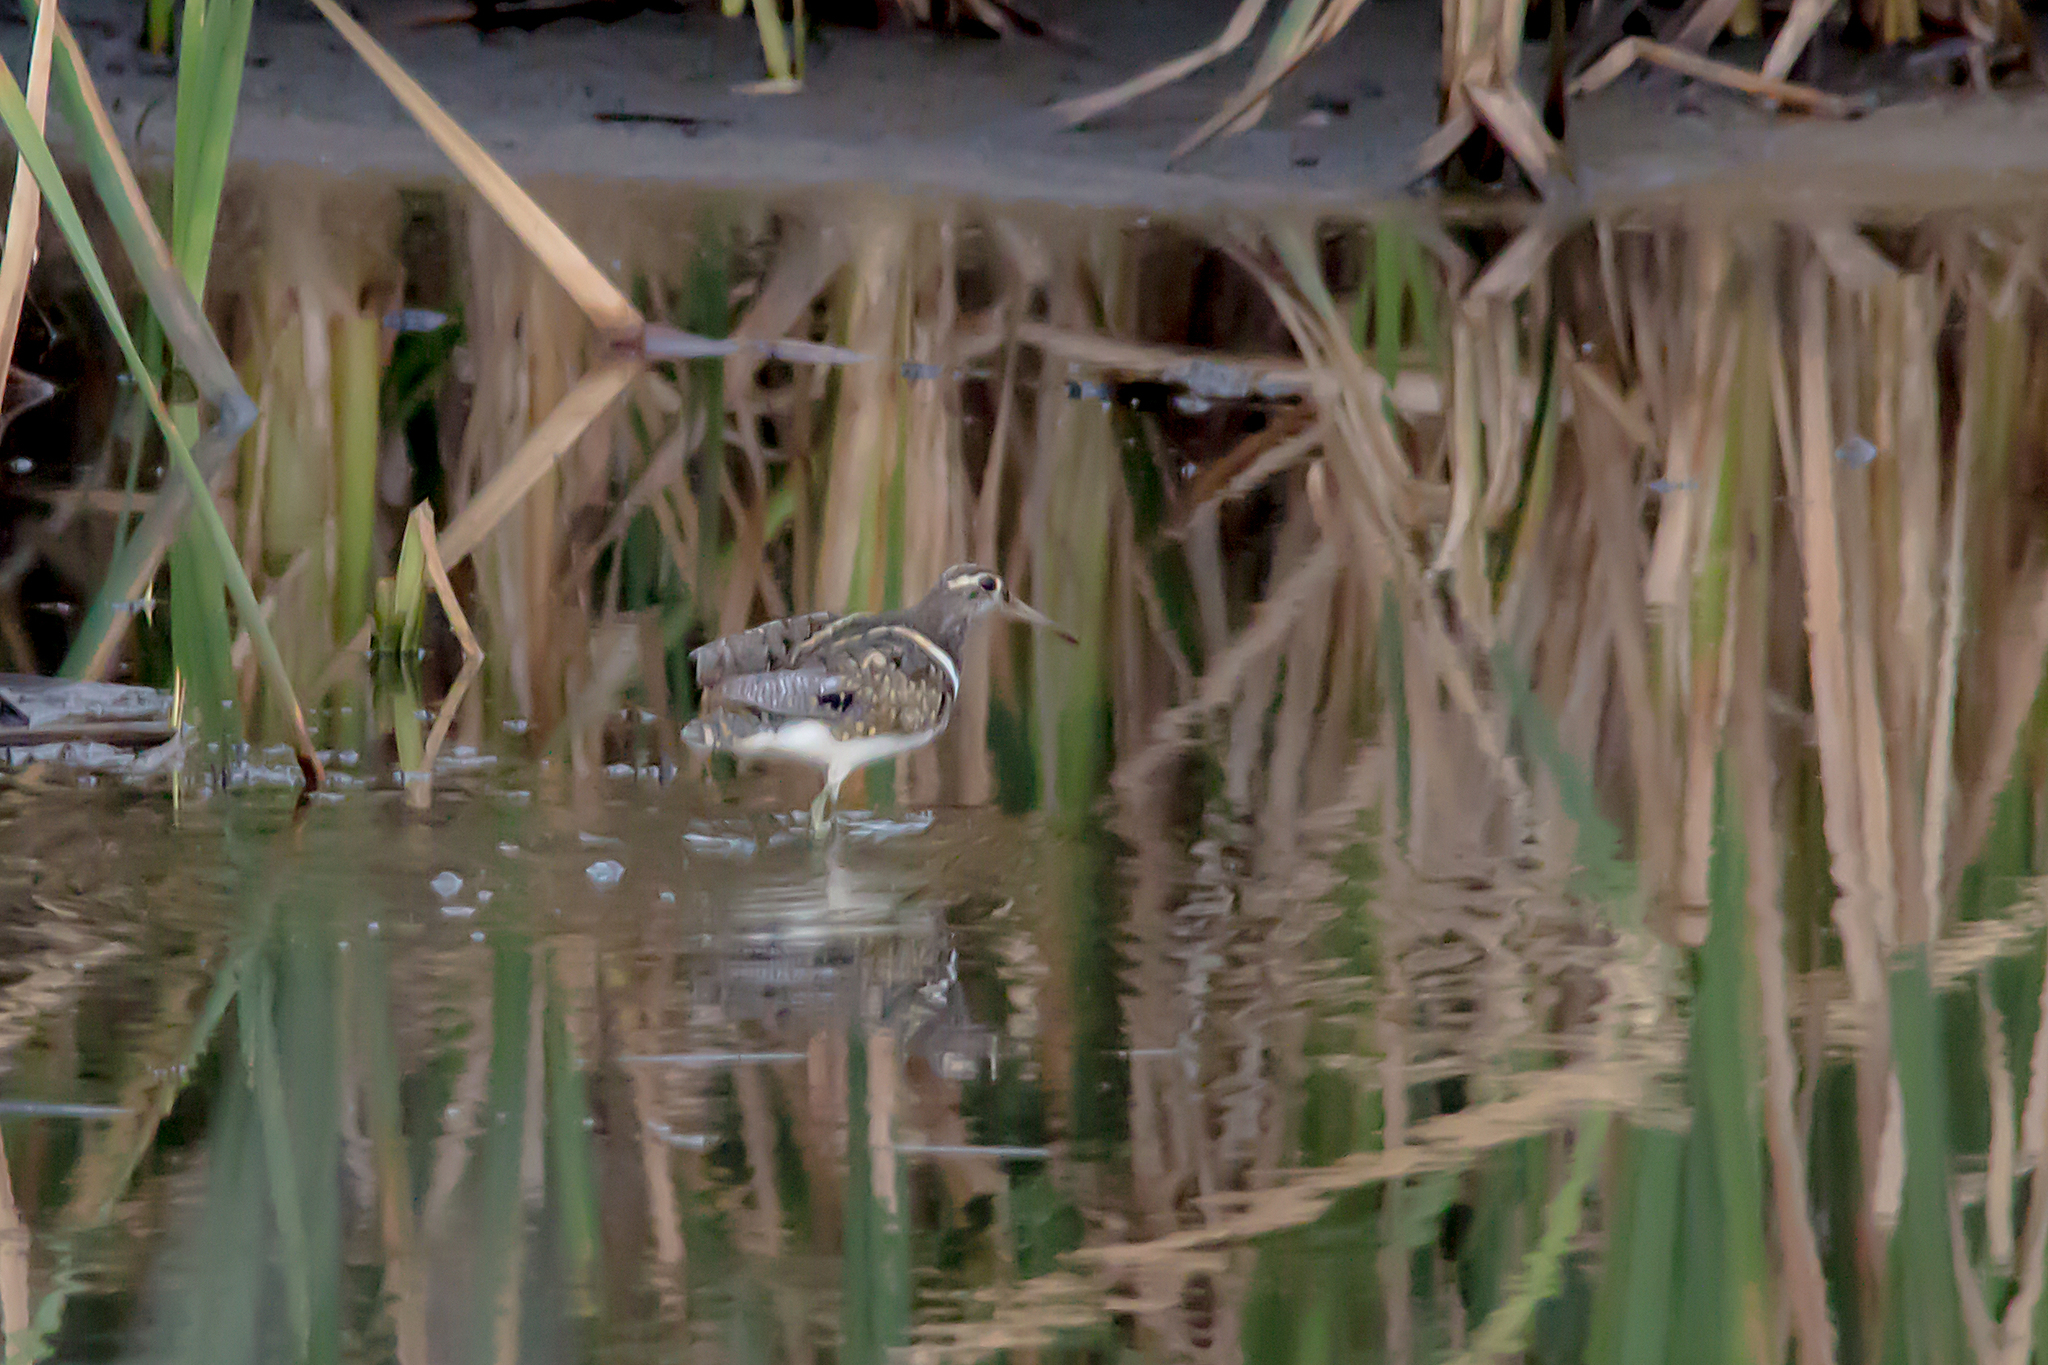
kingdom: Animalia
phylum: Chordata
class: Aves
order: Charadriiformes
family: Rostratulidae
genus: Rostratula
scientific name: Rostratula australis
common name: Australian painted-snipe
